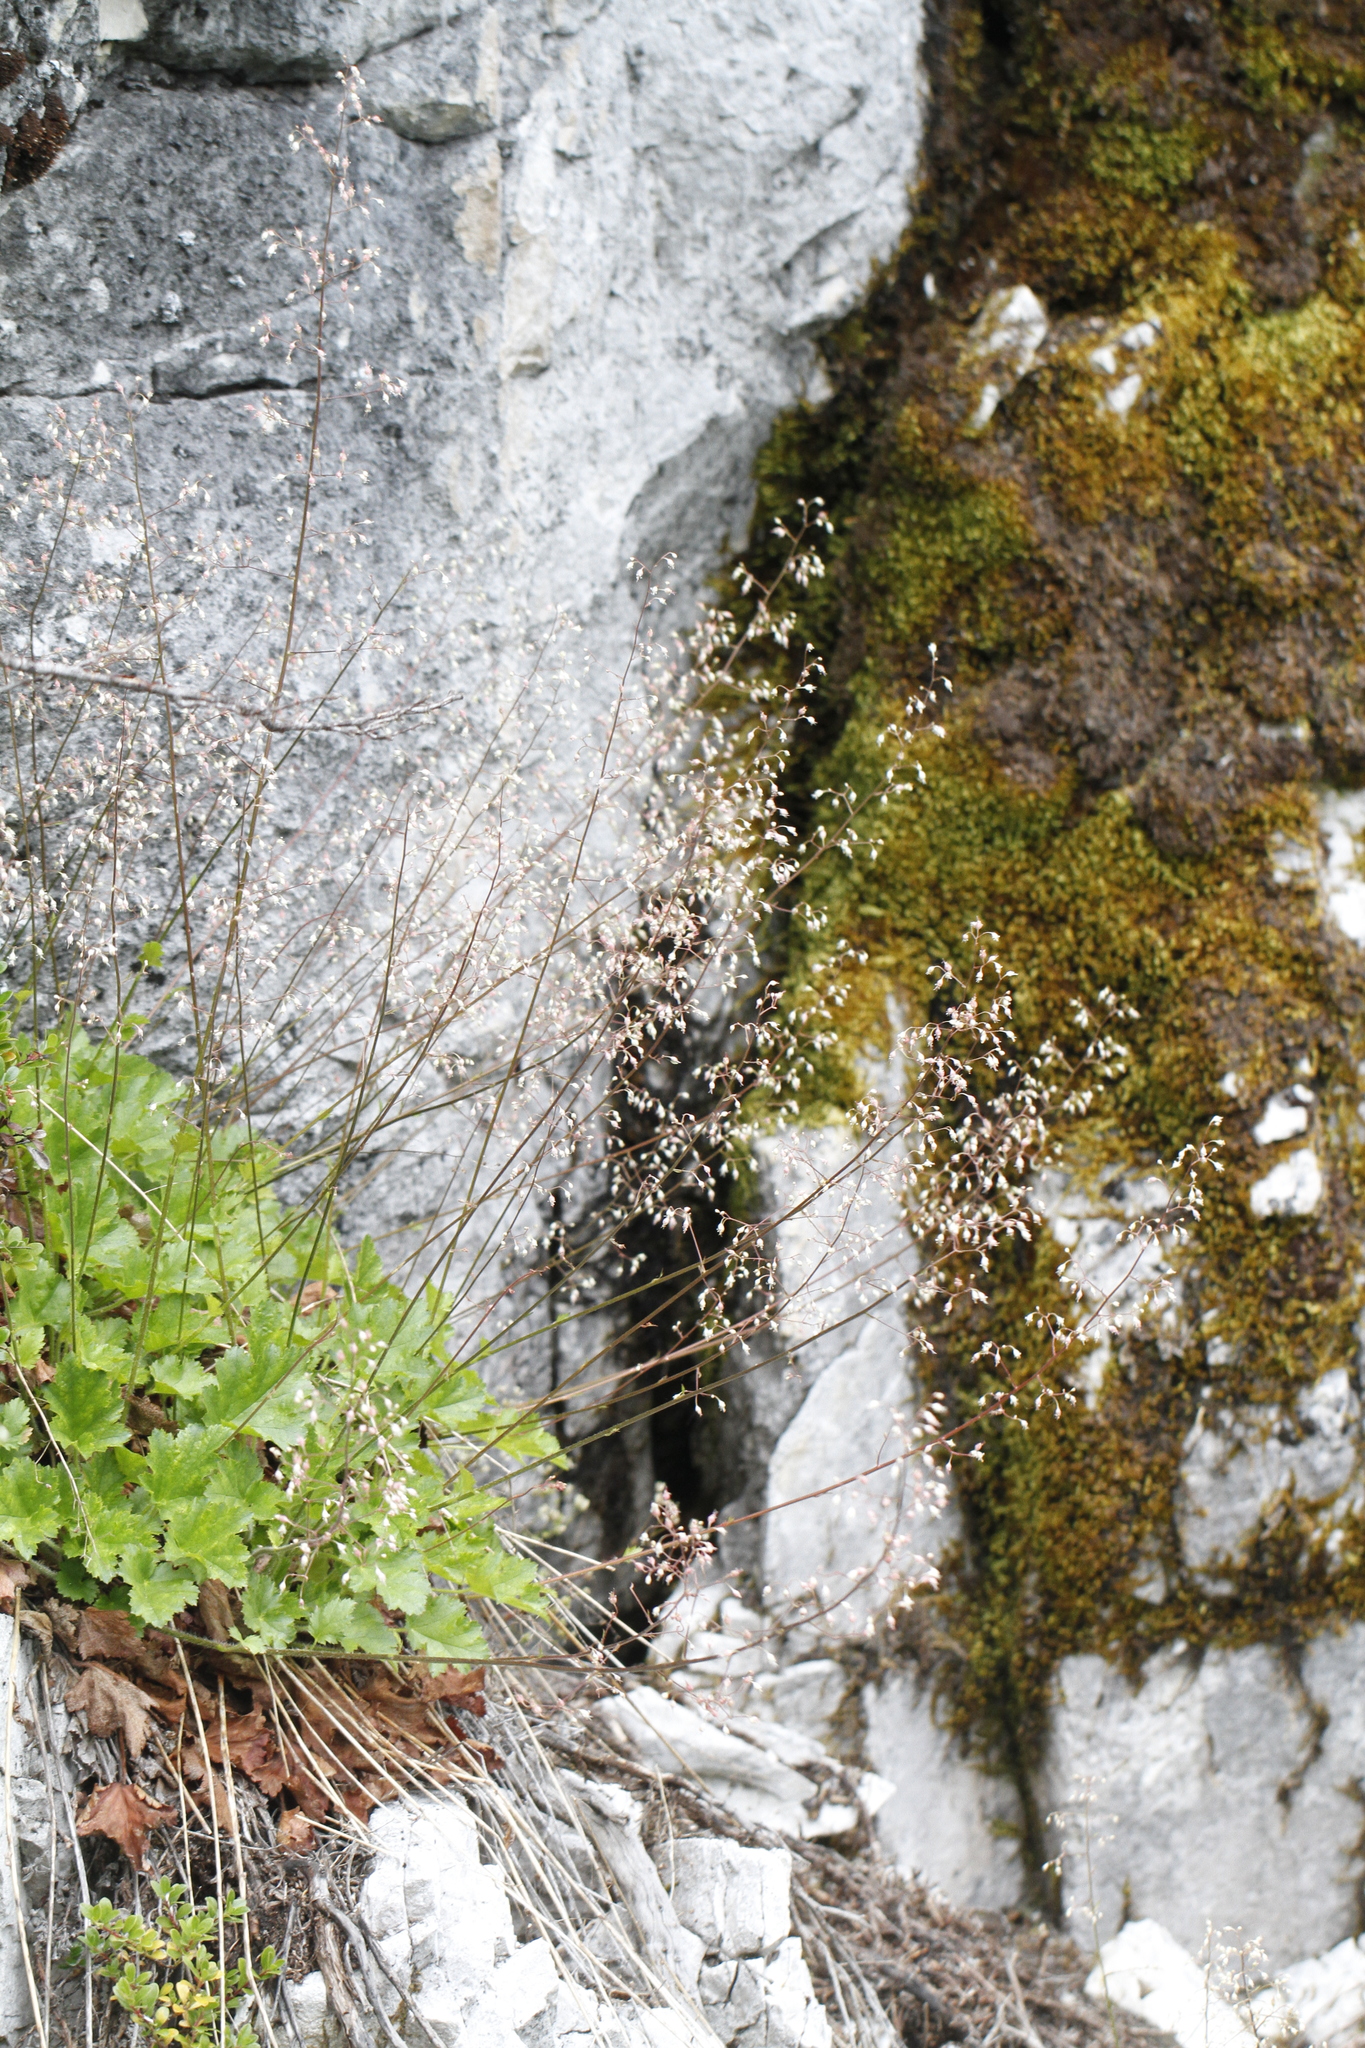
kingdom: Plantae
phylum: Tracheophyta
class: Magnoliopsida
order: Saxifragales
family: Saxifragaceae
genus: Heuchera
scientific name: Heuchera micrantha
